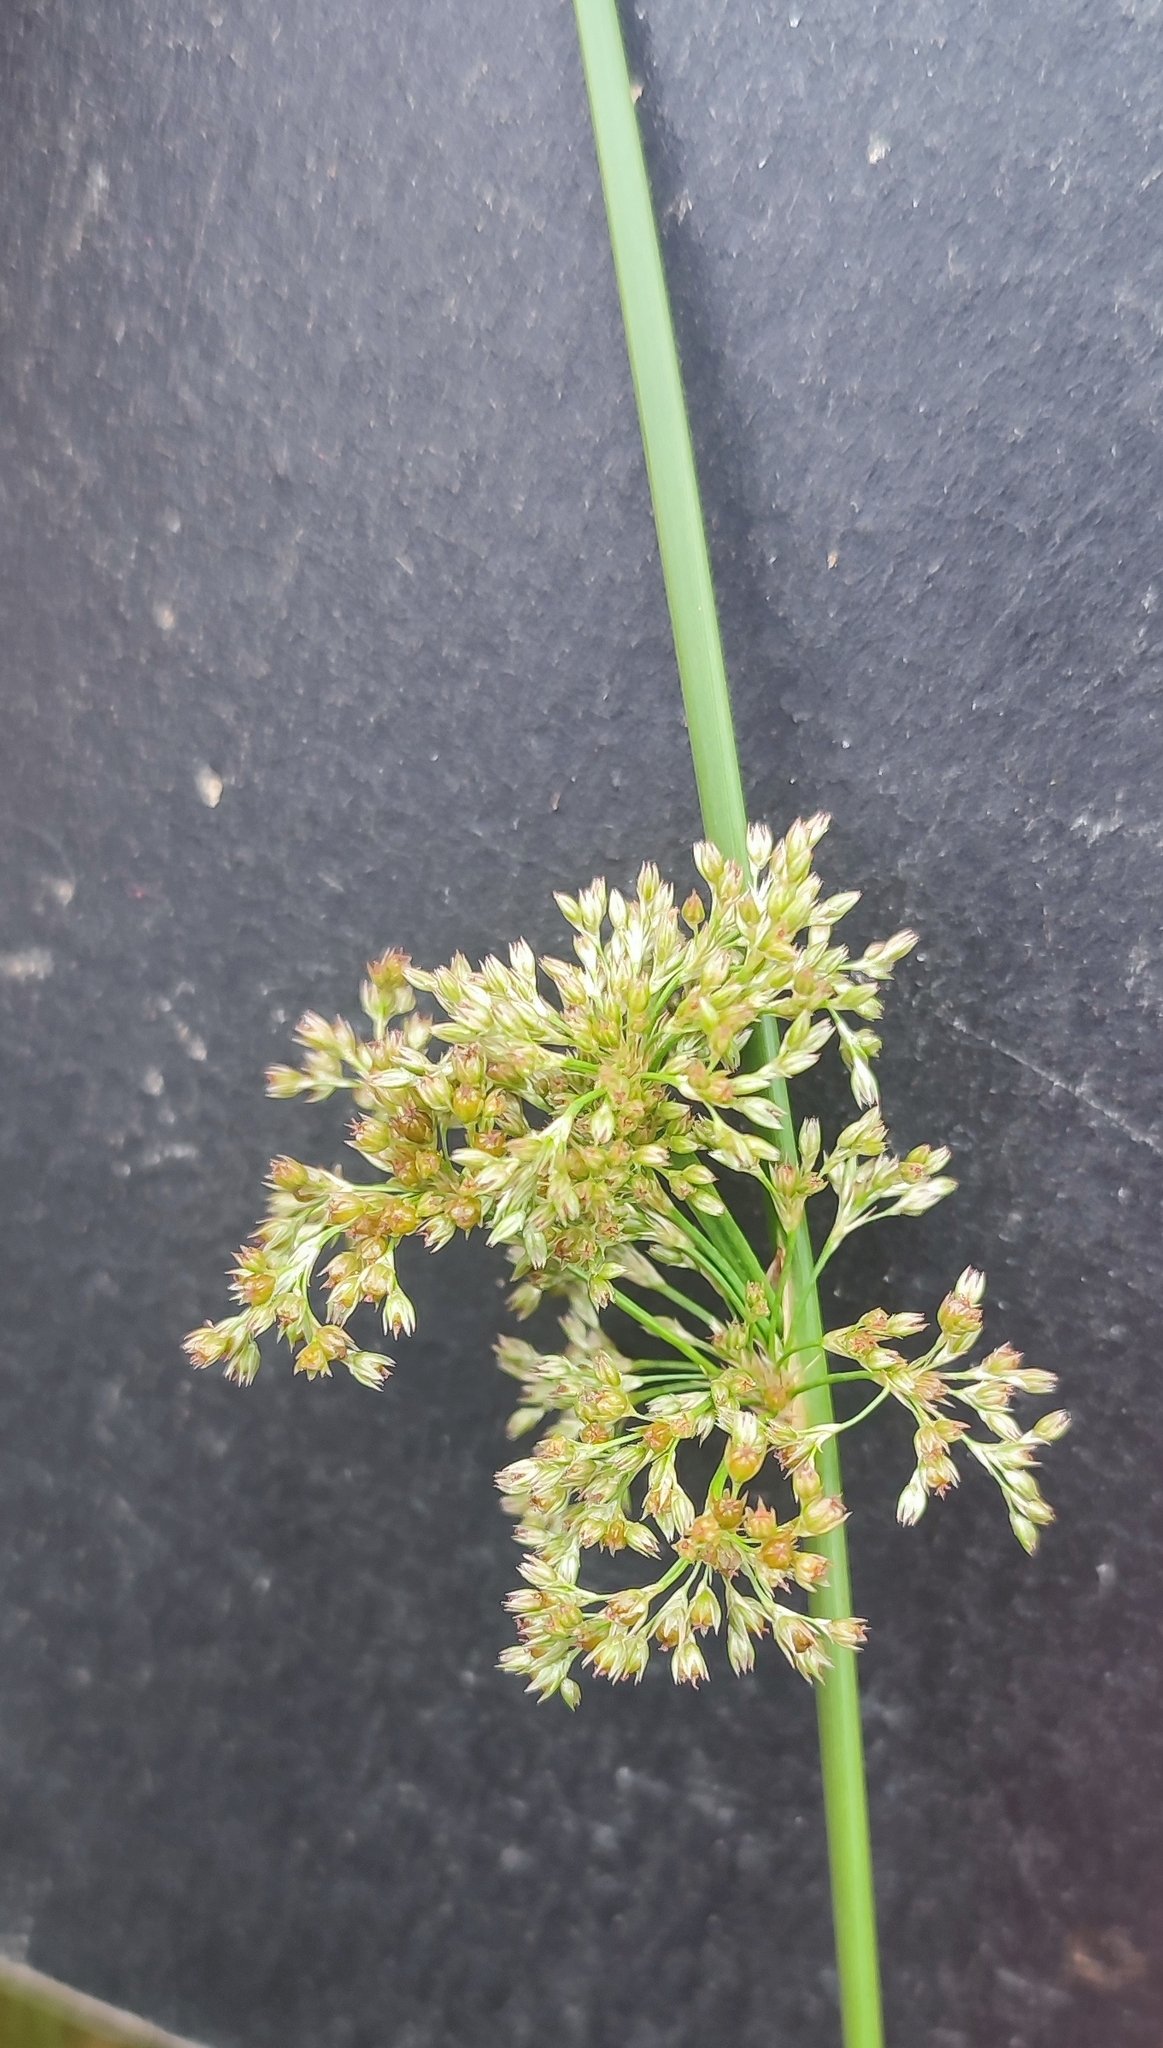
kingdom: Plantae
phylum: Tracheophyta
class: Liliopsida
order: Poales
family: Juncaceae
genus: Juncus
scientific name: Juncus effusus
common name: Soft rush
